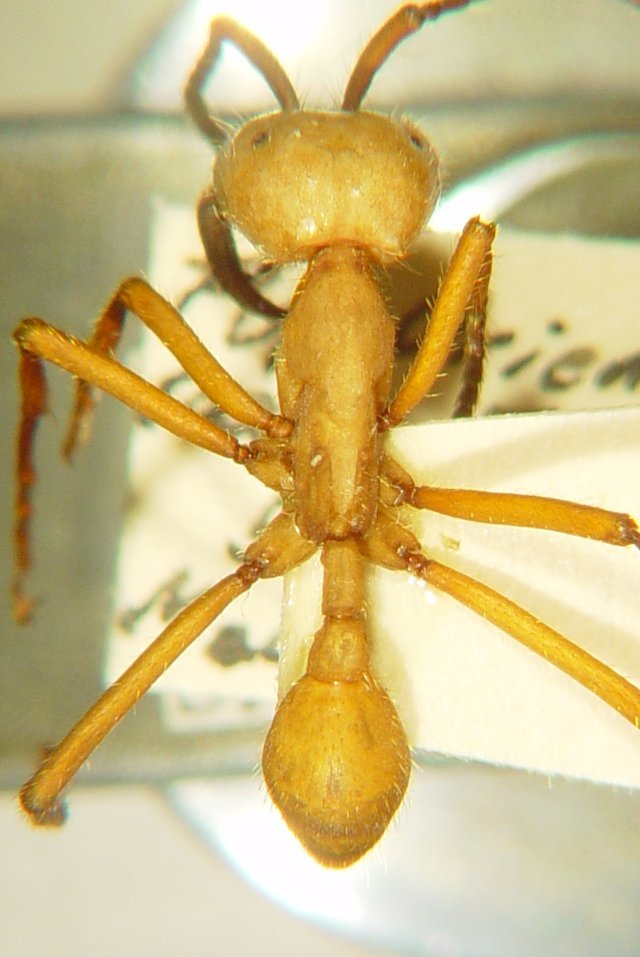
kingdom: Animalia
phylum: Arthropoda
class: Insecta
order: Hymenoptera
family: Formicidae
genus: Eciton
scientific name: Eciton drepanophorum
